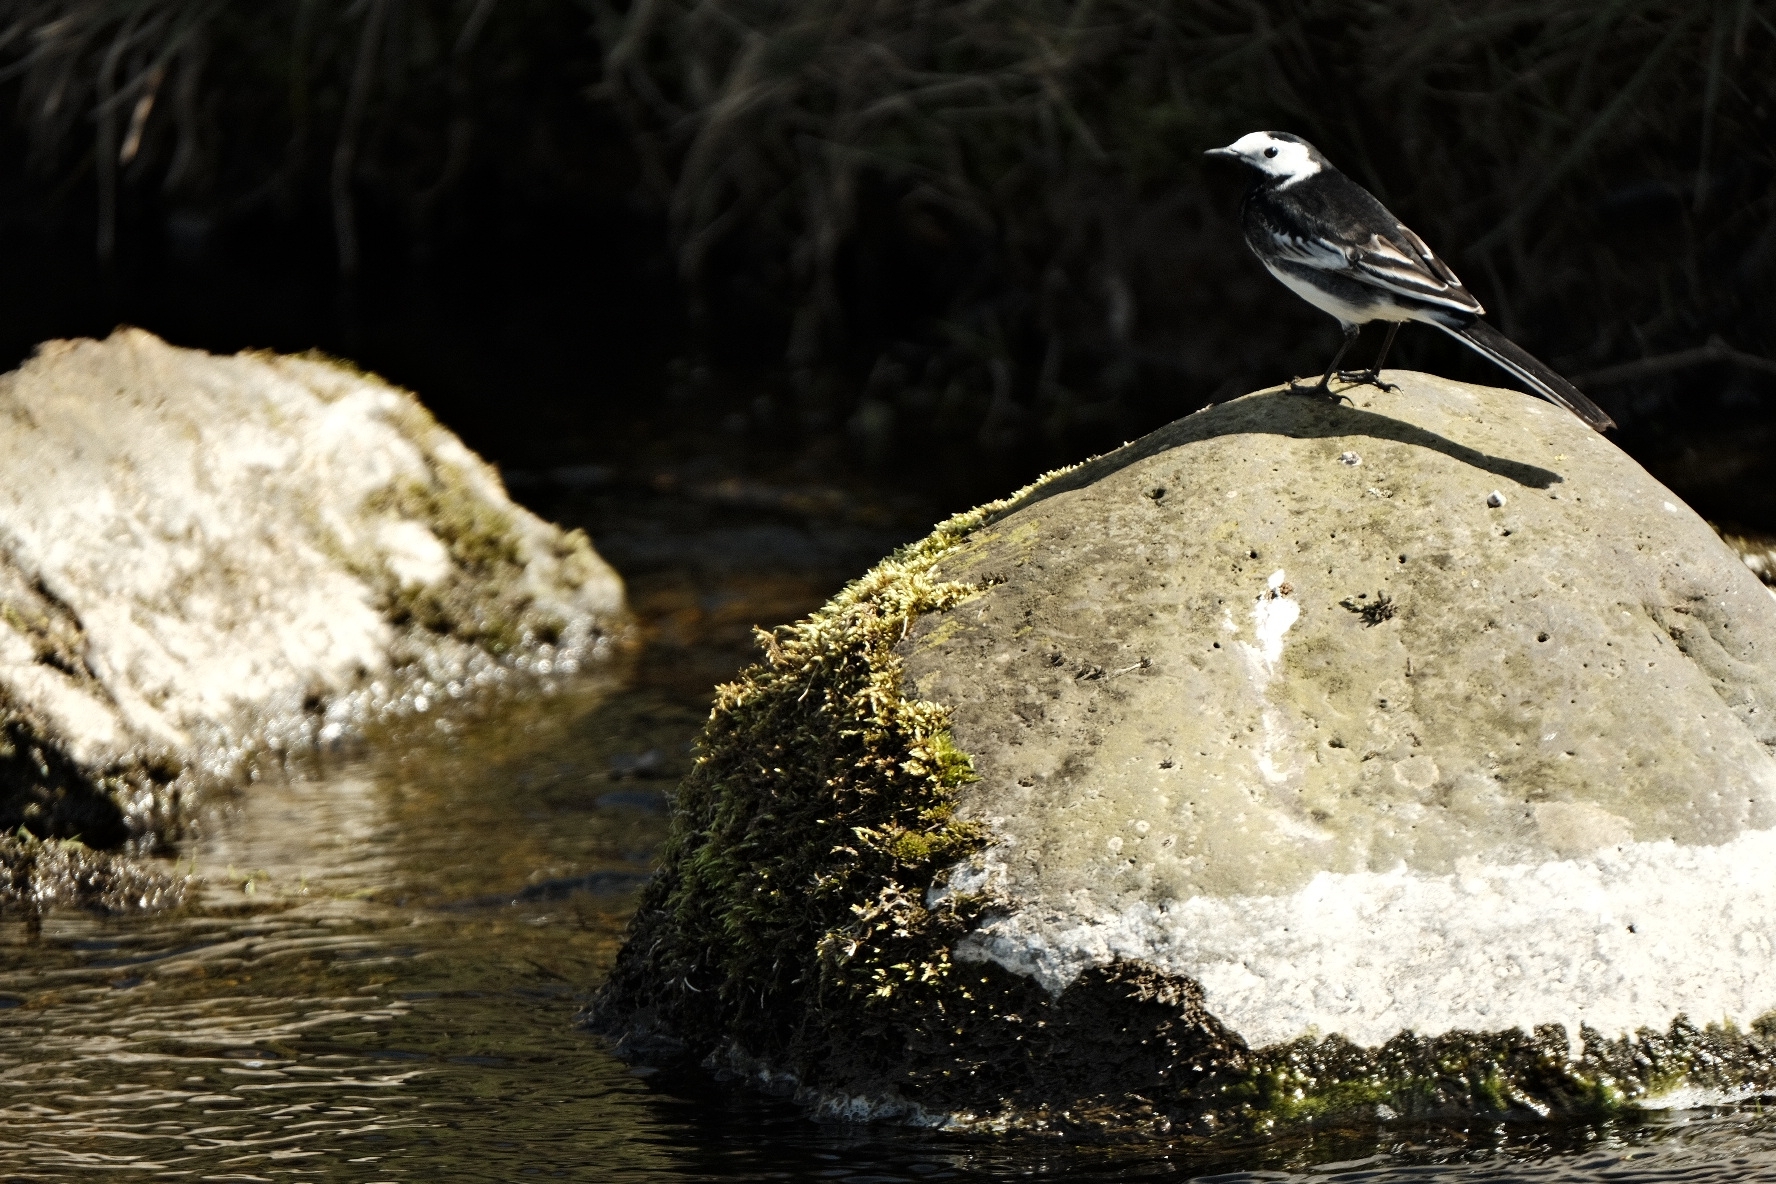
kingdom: Animalia
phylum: Chordata
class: Aves
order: Passeriformes
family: Motacillidae
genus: Motacilla
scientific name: Motacilla alba
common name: White wagtail
